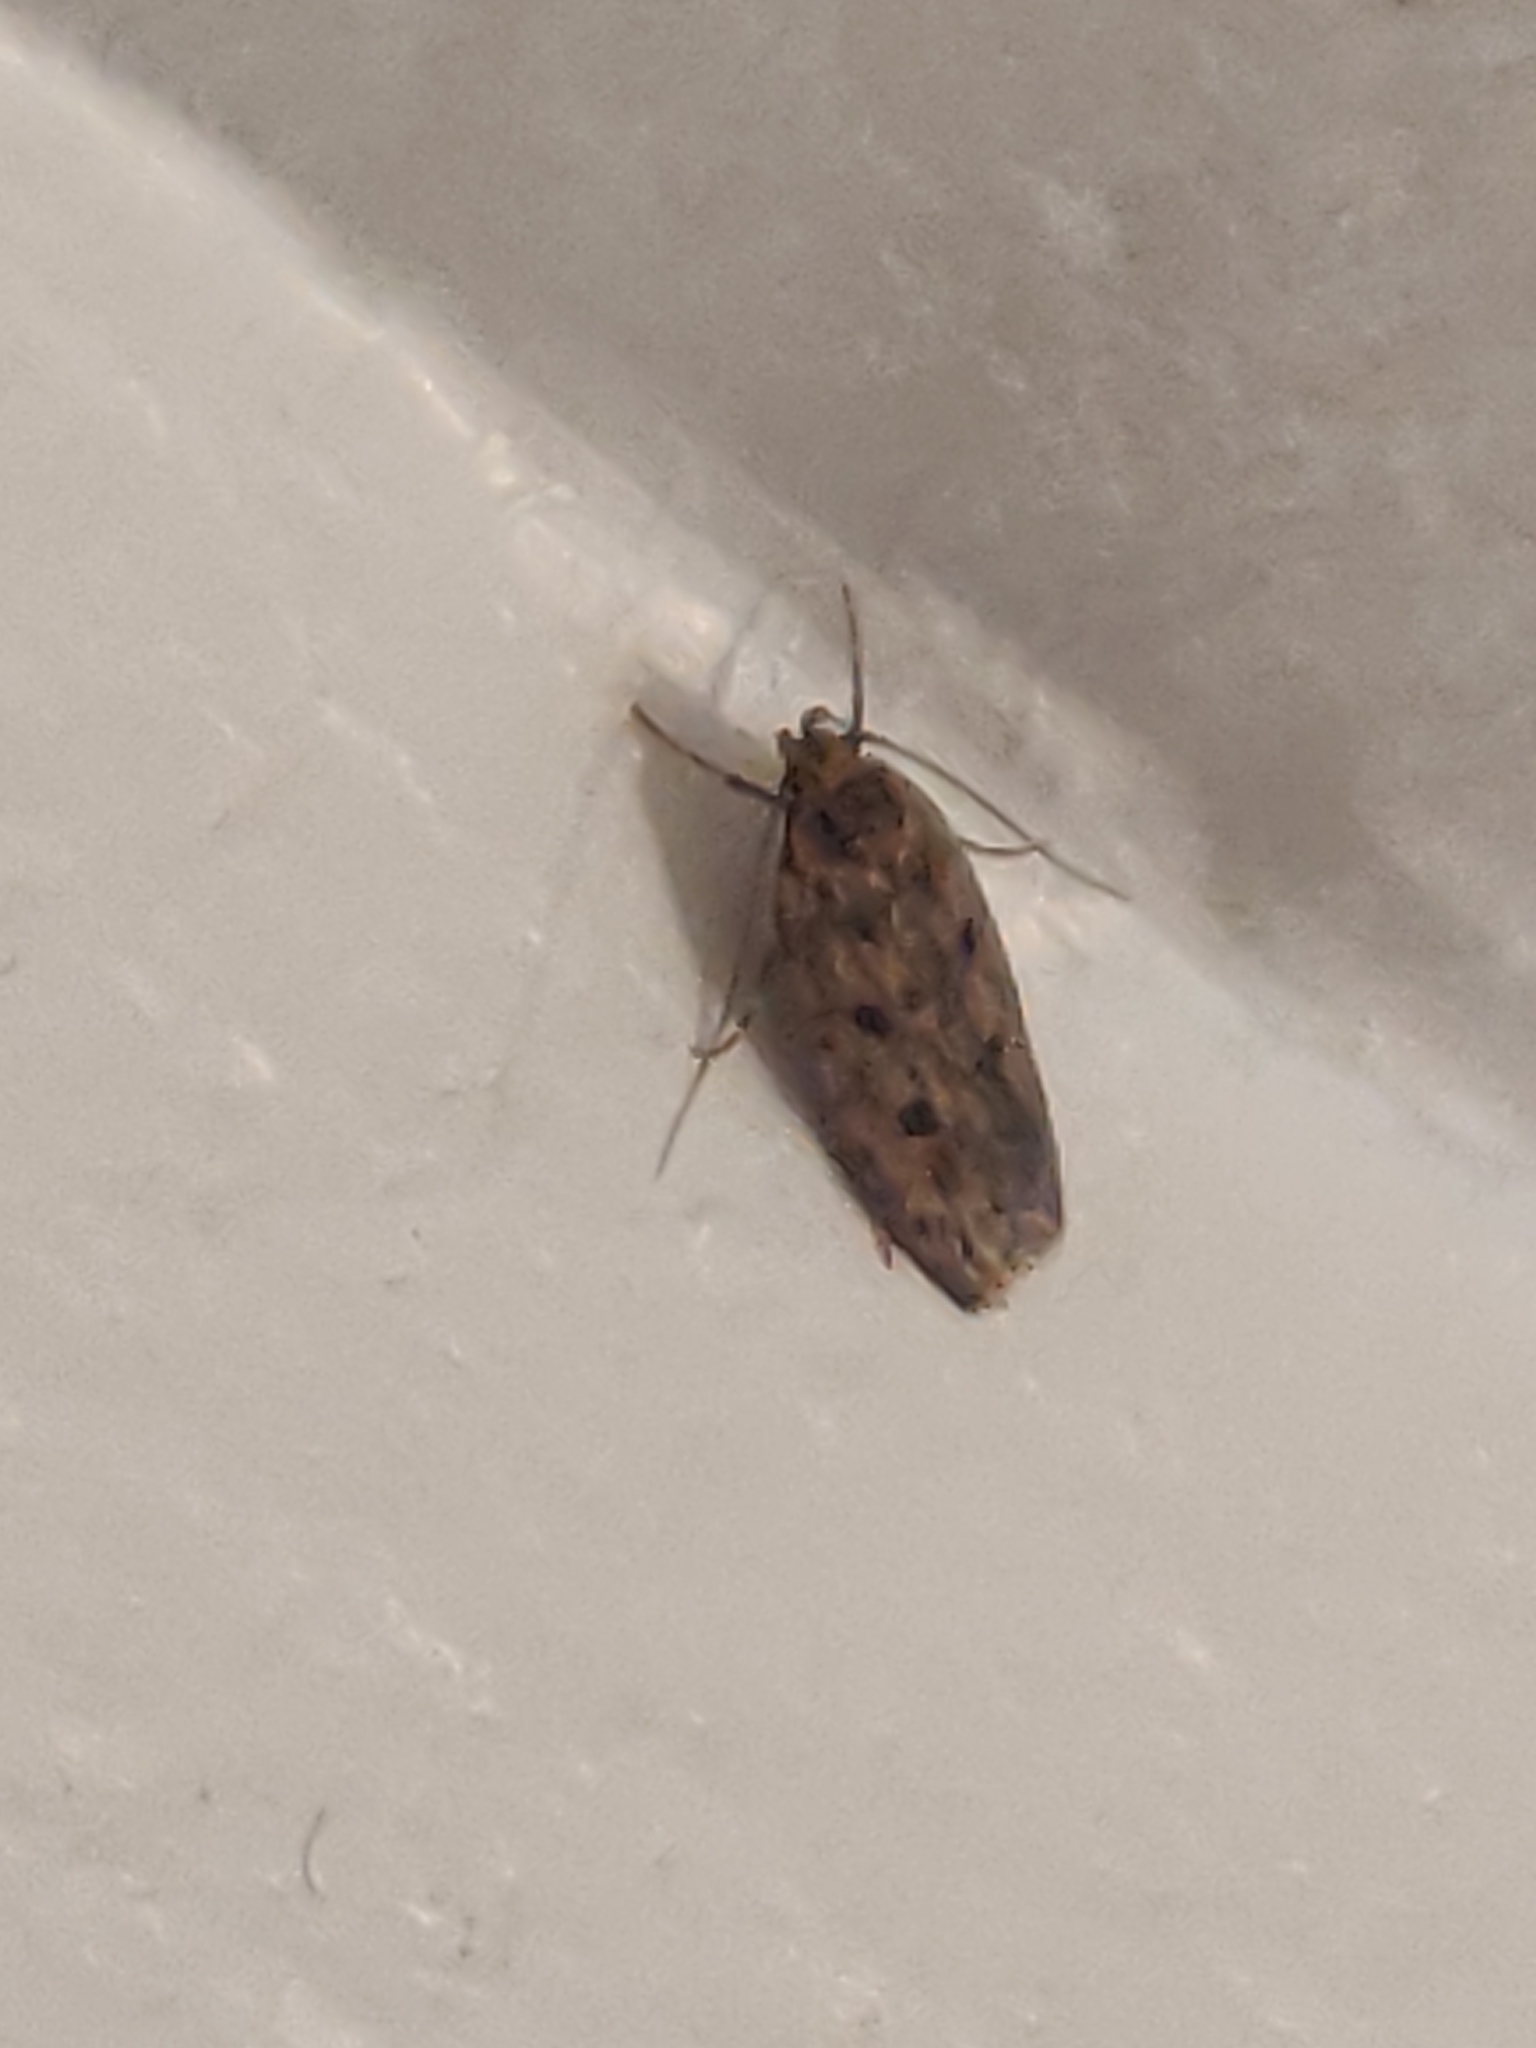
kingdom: Animalia
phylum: Arthropoda
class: Insecta
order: Lepidoptera
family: Oecophoridae
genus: Hofmannophila
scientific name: Hofmannophila pseudospretella
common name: Brown house moth
